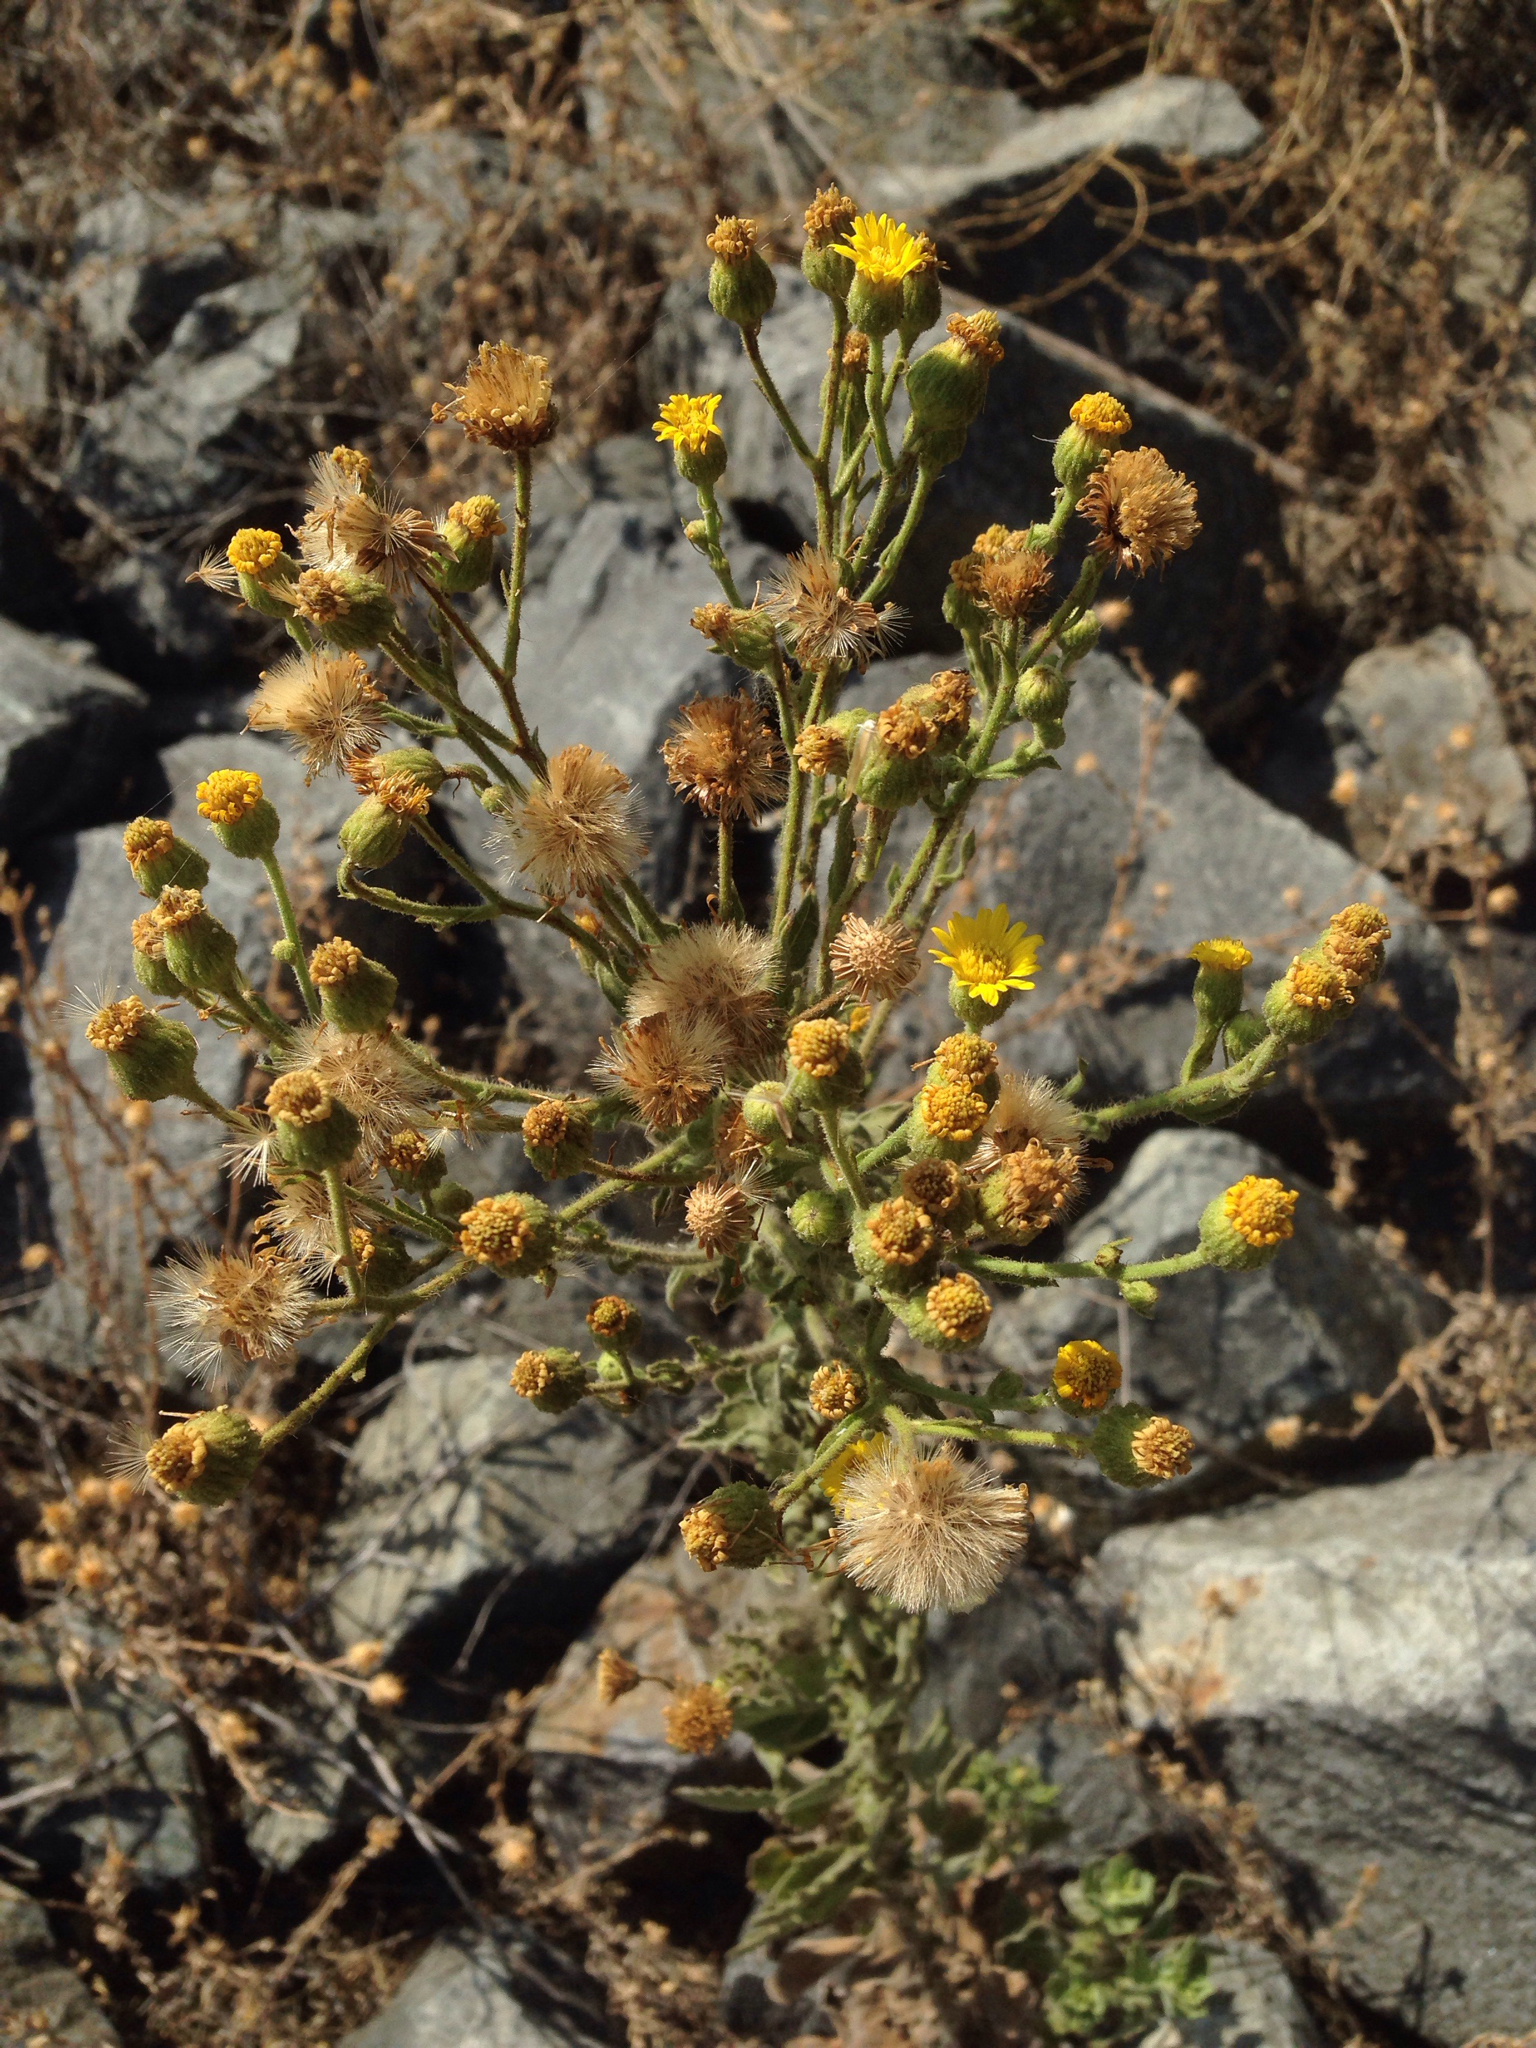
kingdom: Plantae
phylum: Tracheophyta
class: Magnoliopsida
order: Asterales
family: Asteraceae
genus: Heterotheca
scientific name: Heterotheca grandiflora
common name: Telegraphweed
